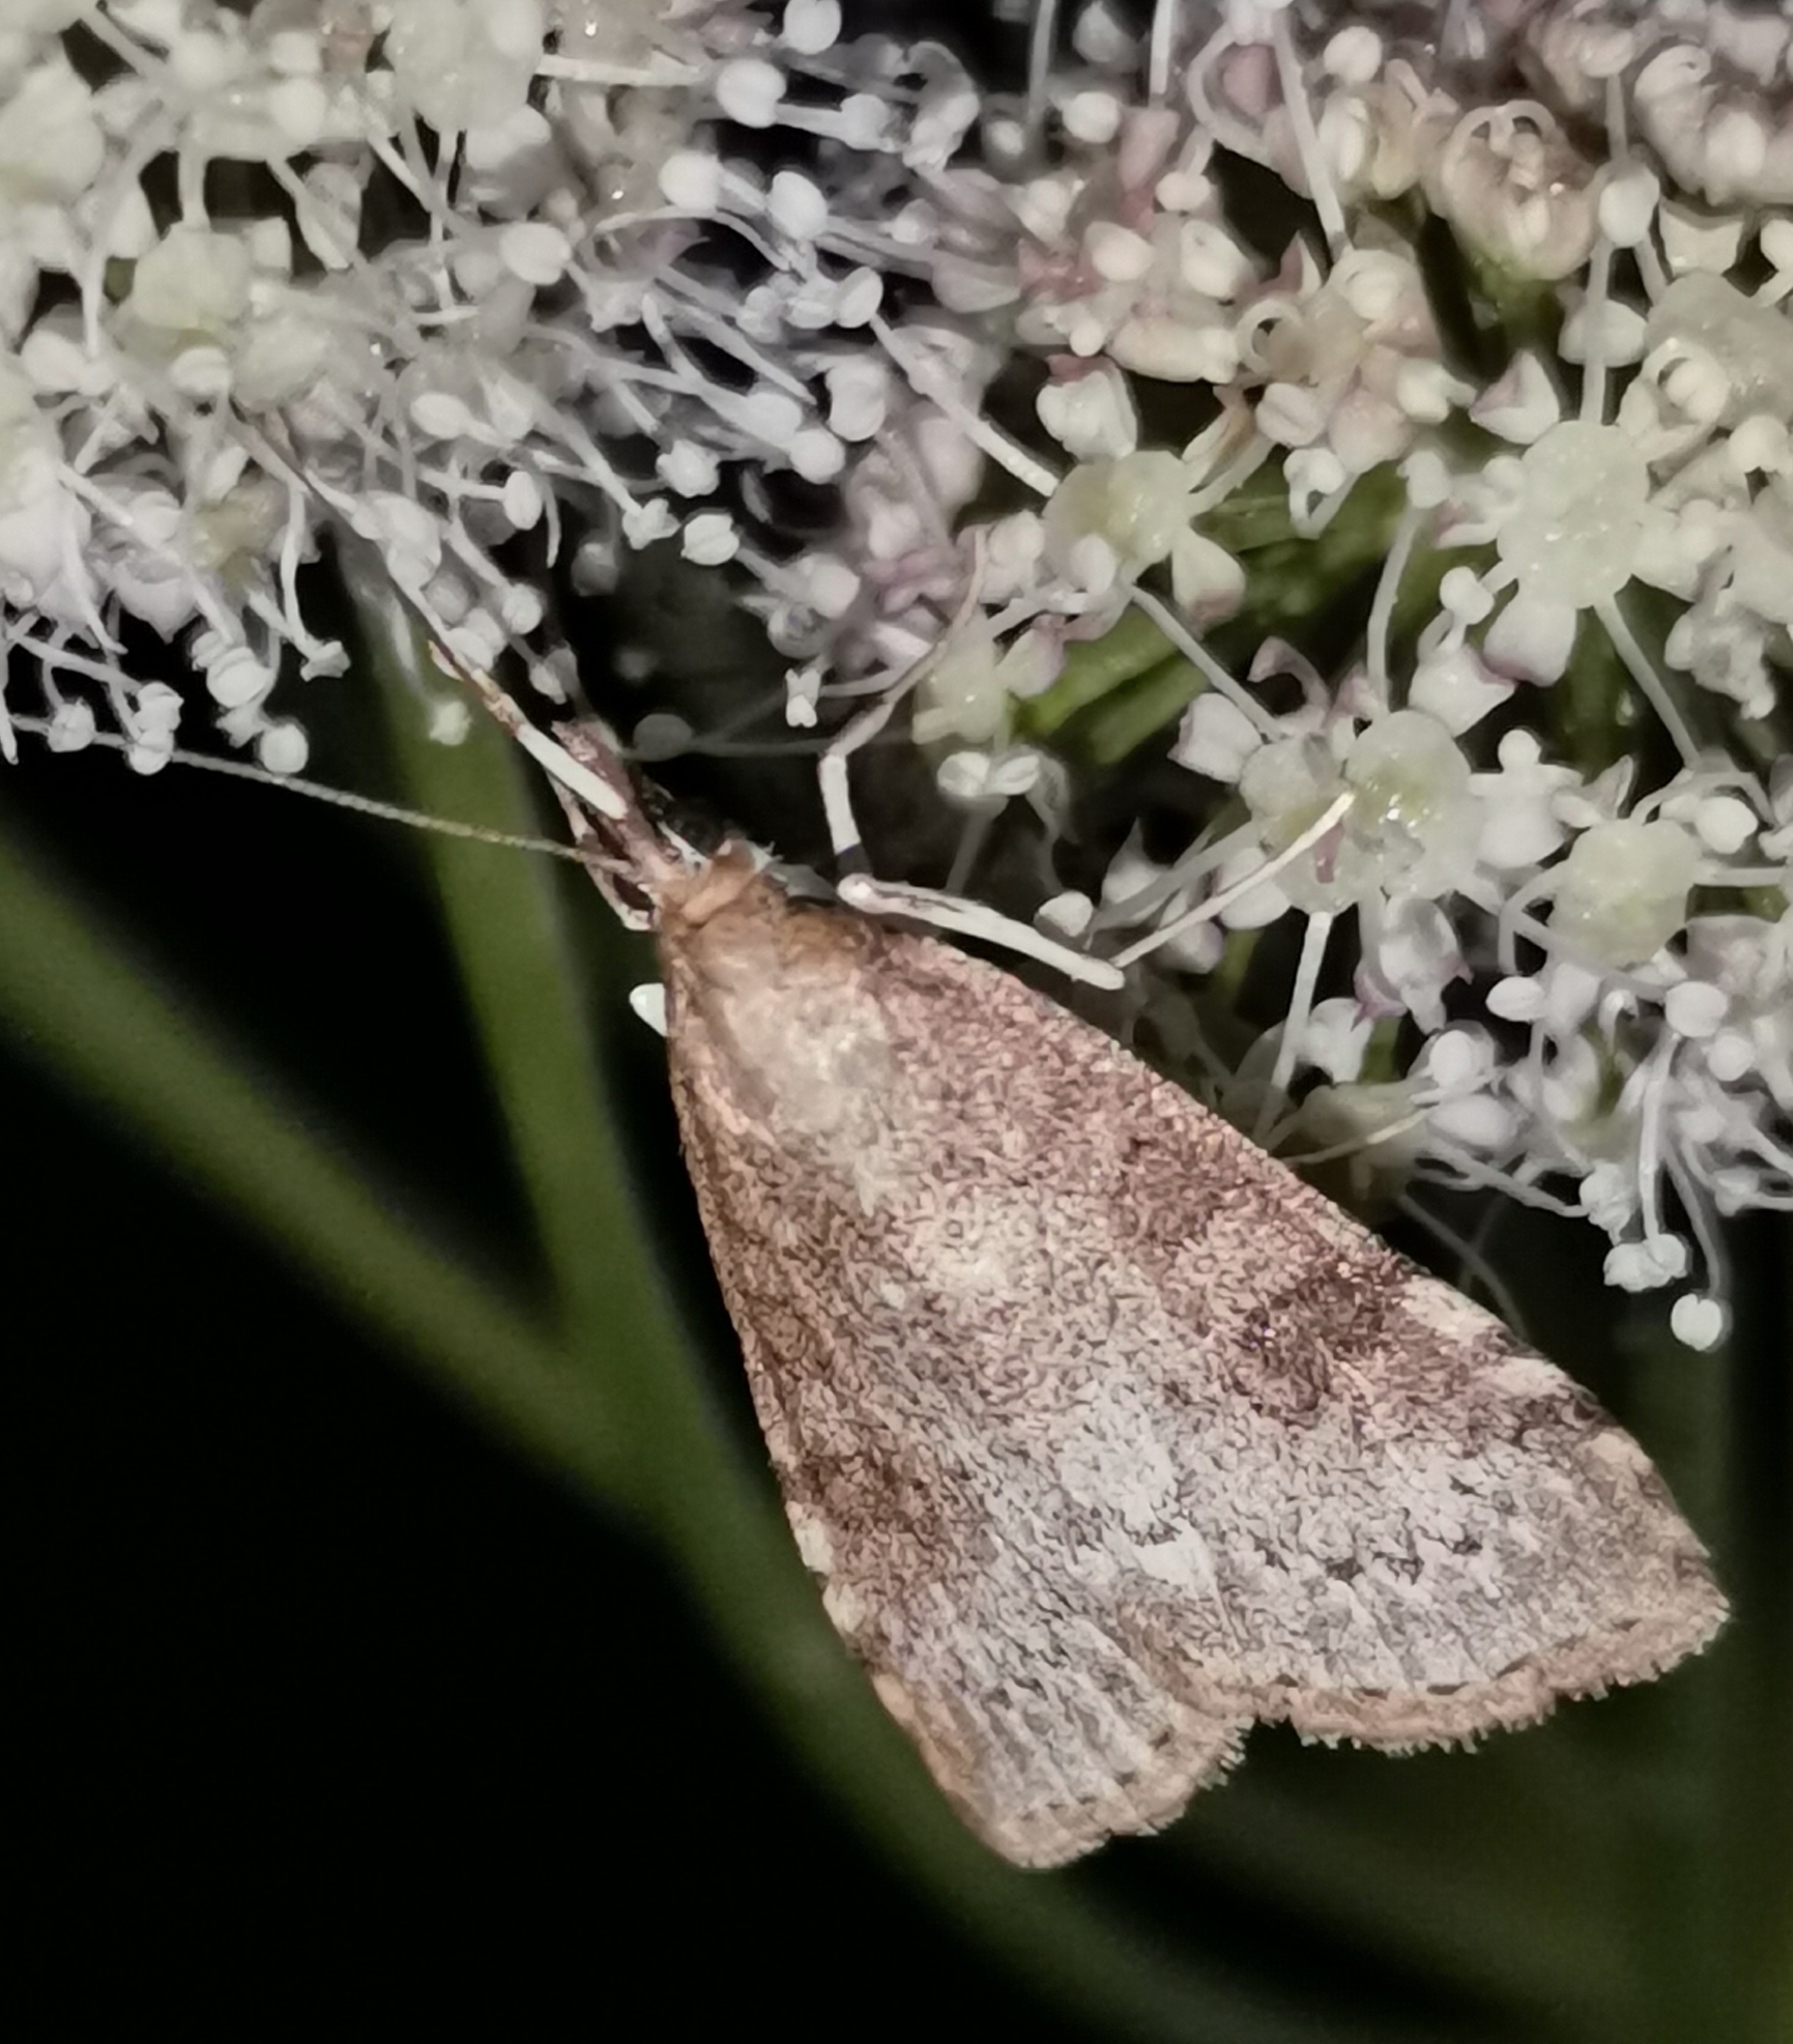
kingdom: Animalia
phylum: Arthropoda
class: Insecta
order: Lepidoptera
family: Crambidae
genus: Udea
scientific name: Udea prunalis
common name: Dusky pearl
